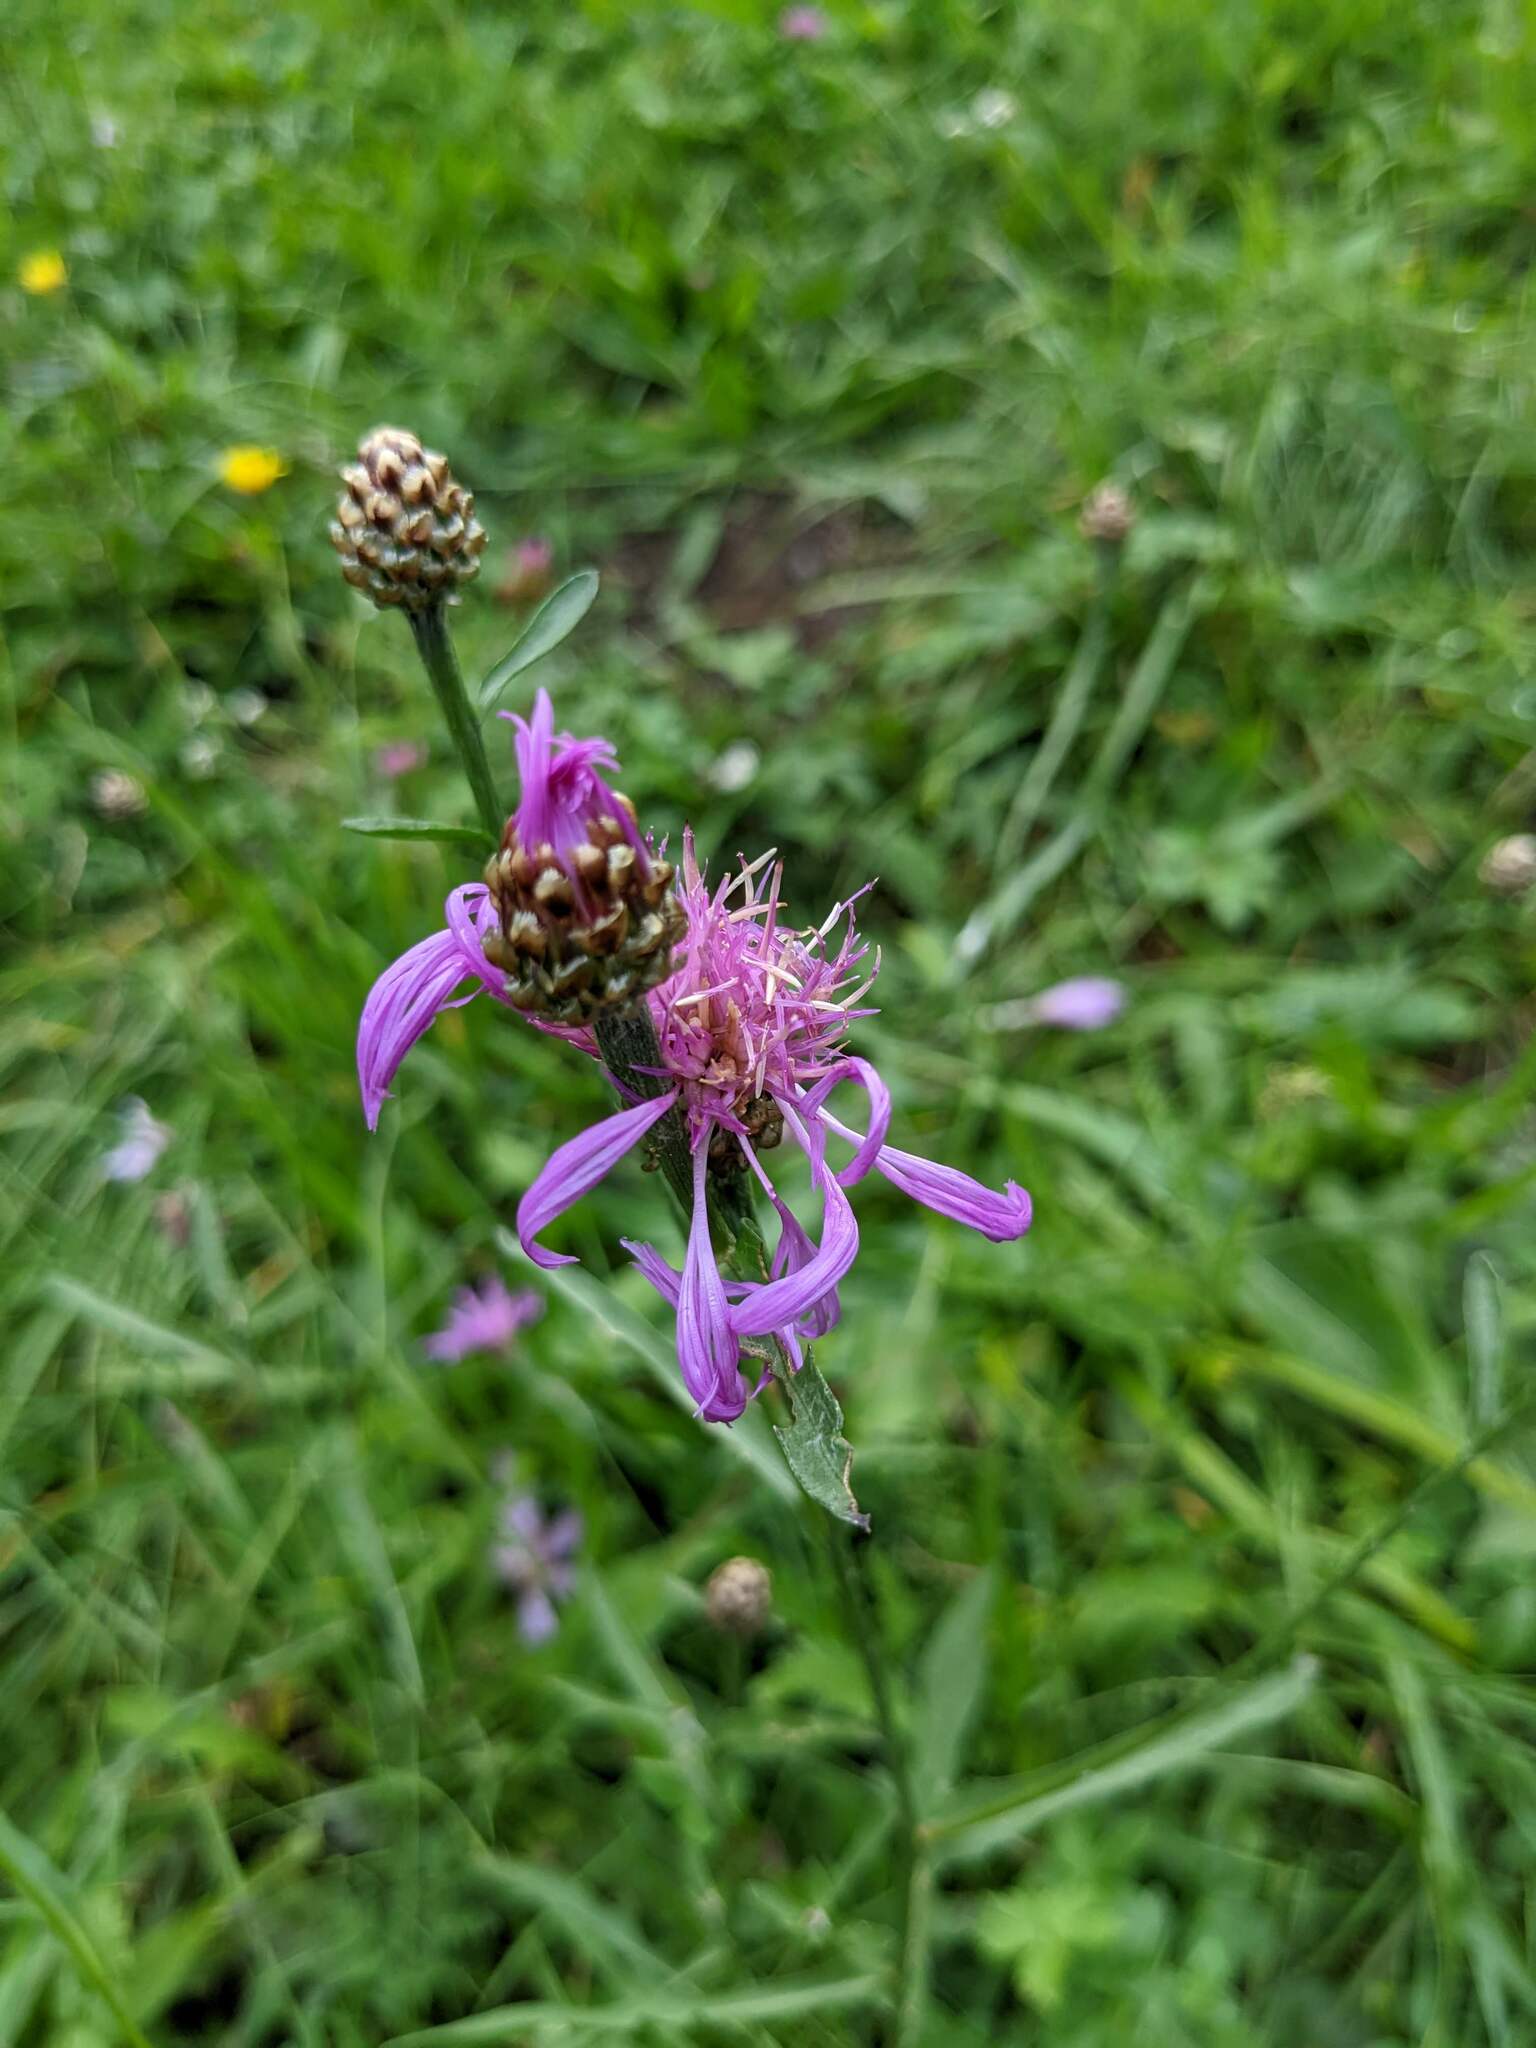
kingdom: Plantae
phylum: Tracheophyta
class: Magnoliopsida
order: Asterales
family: Asteraceae
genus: Centaurea
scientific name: Centaurea jacea
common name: Brown knapweed
